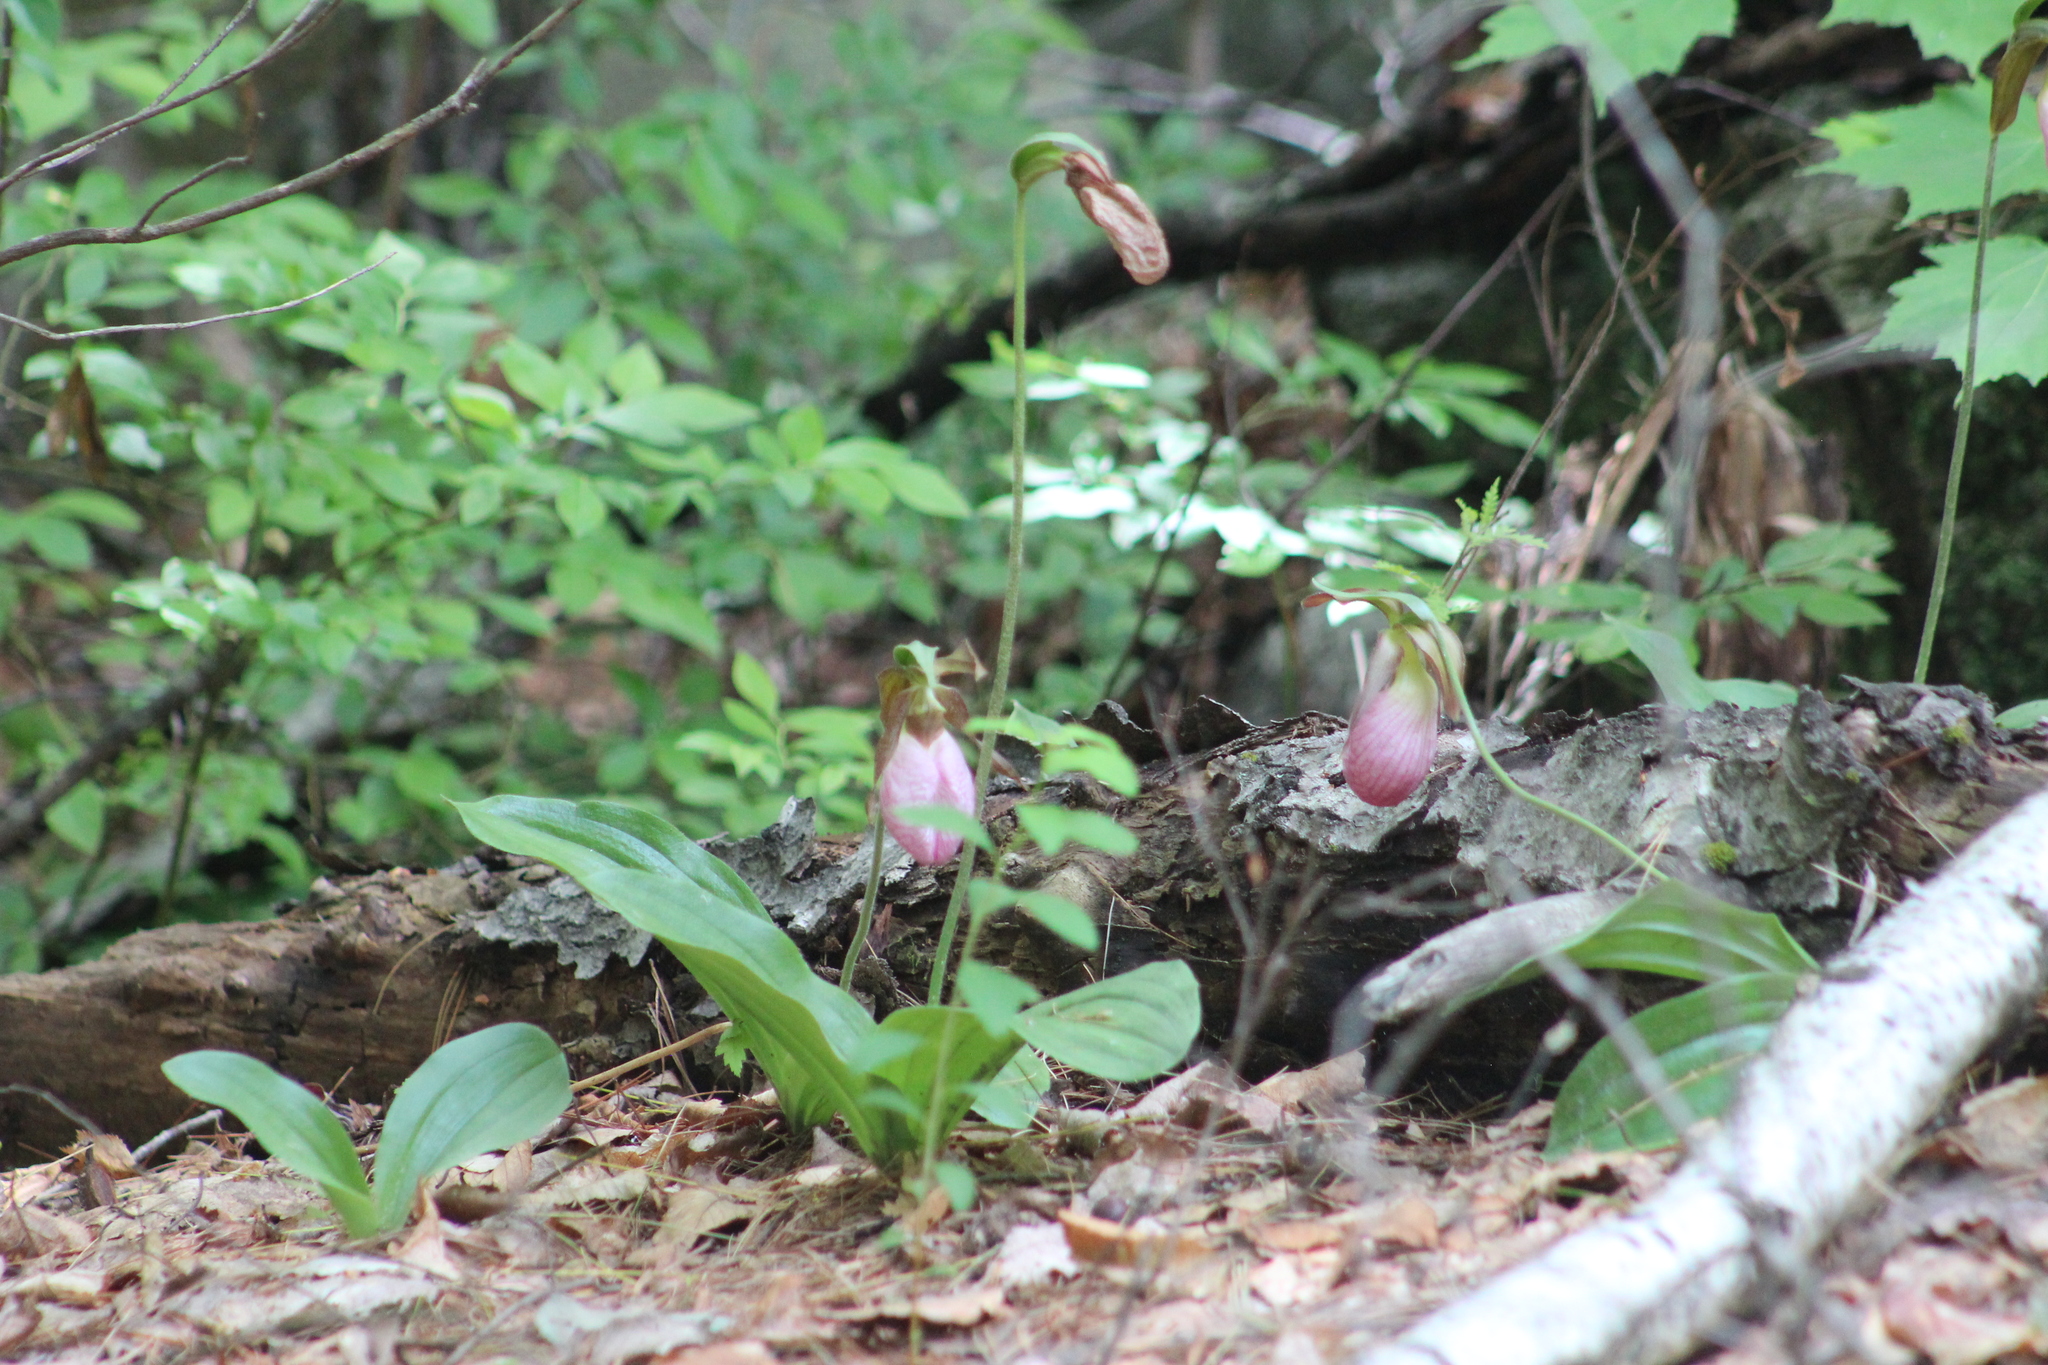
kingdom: Plantae
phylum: Tracheophyta
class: Liliopsida
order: Asparagales
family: Orchidaceae
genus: Cypripedium
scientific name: Cypripedium acaule
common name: Pink lady's-slipper
